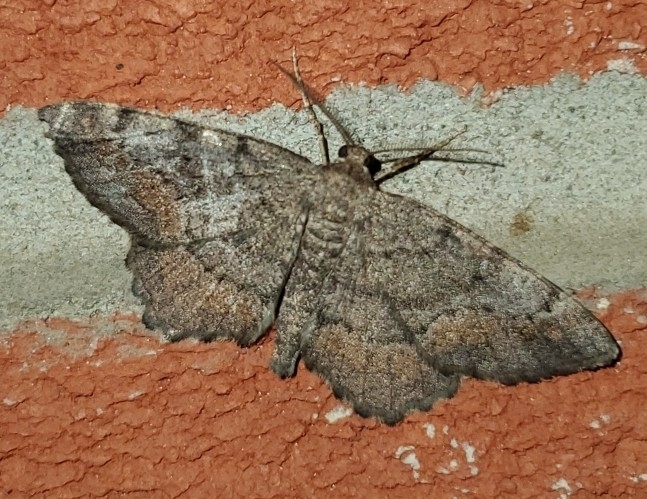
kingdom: Animalia
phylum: Arthropoda
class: Insecta
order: Lepidoptera
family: Geometridae
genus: Hypagyrtis
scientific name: Hypagyrtis unipunctata
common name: One-spotted variant
